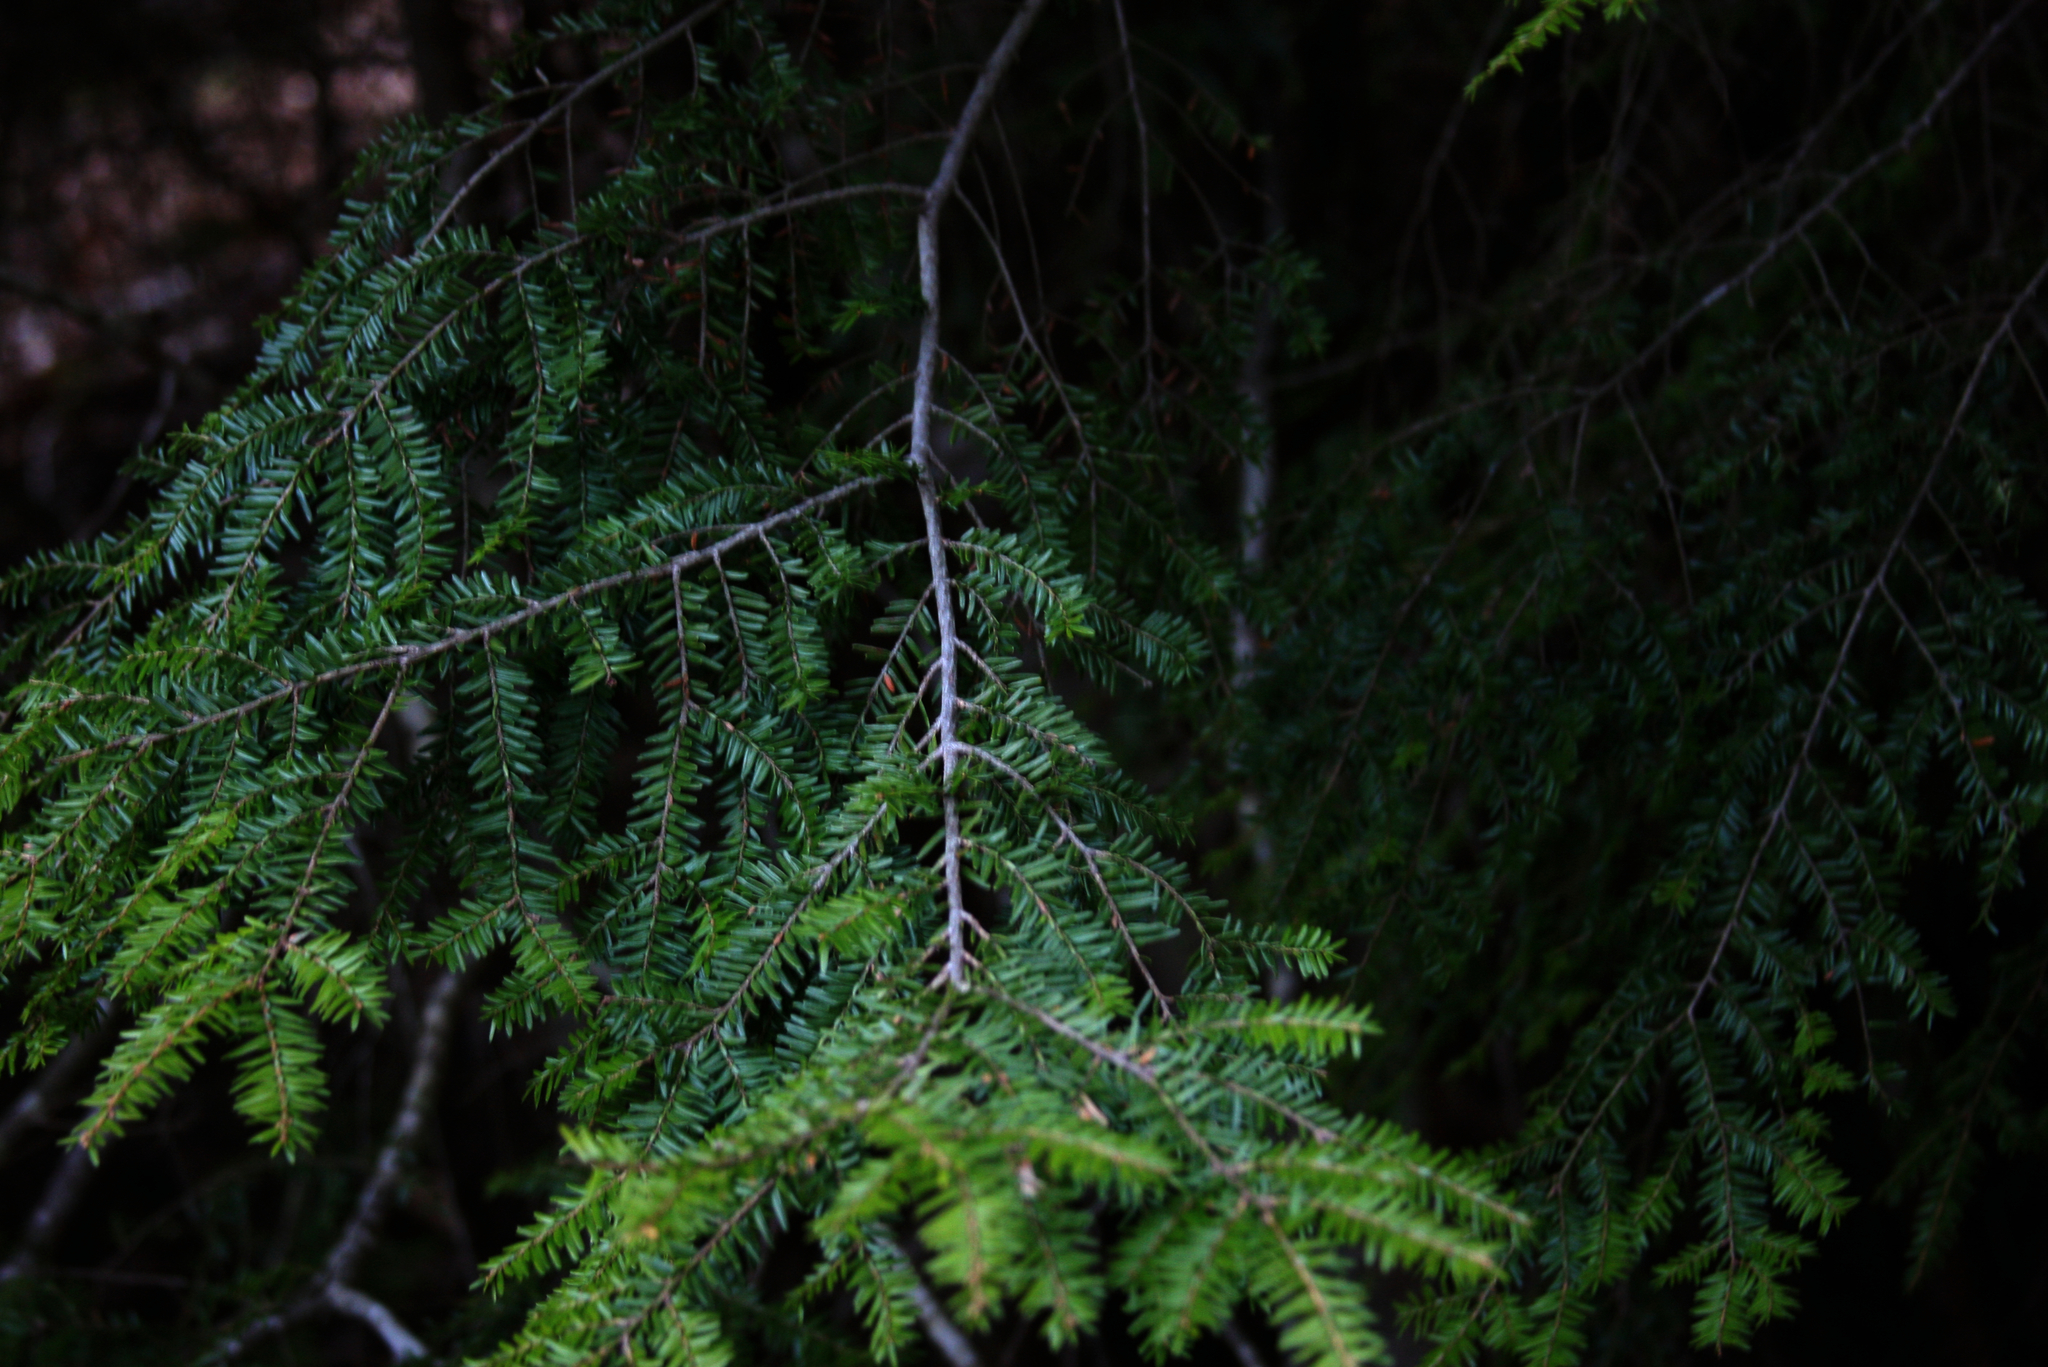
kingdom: Plantae
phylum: Tracheophyta
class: Pinopsida
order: Pinales
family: Pinaceae
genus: Tsuga
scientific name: Tsuga canadensis
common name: Eastern hemlock
